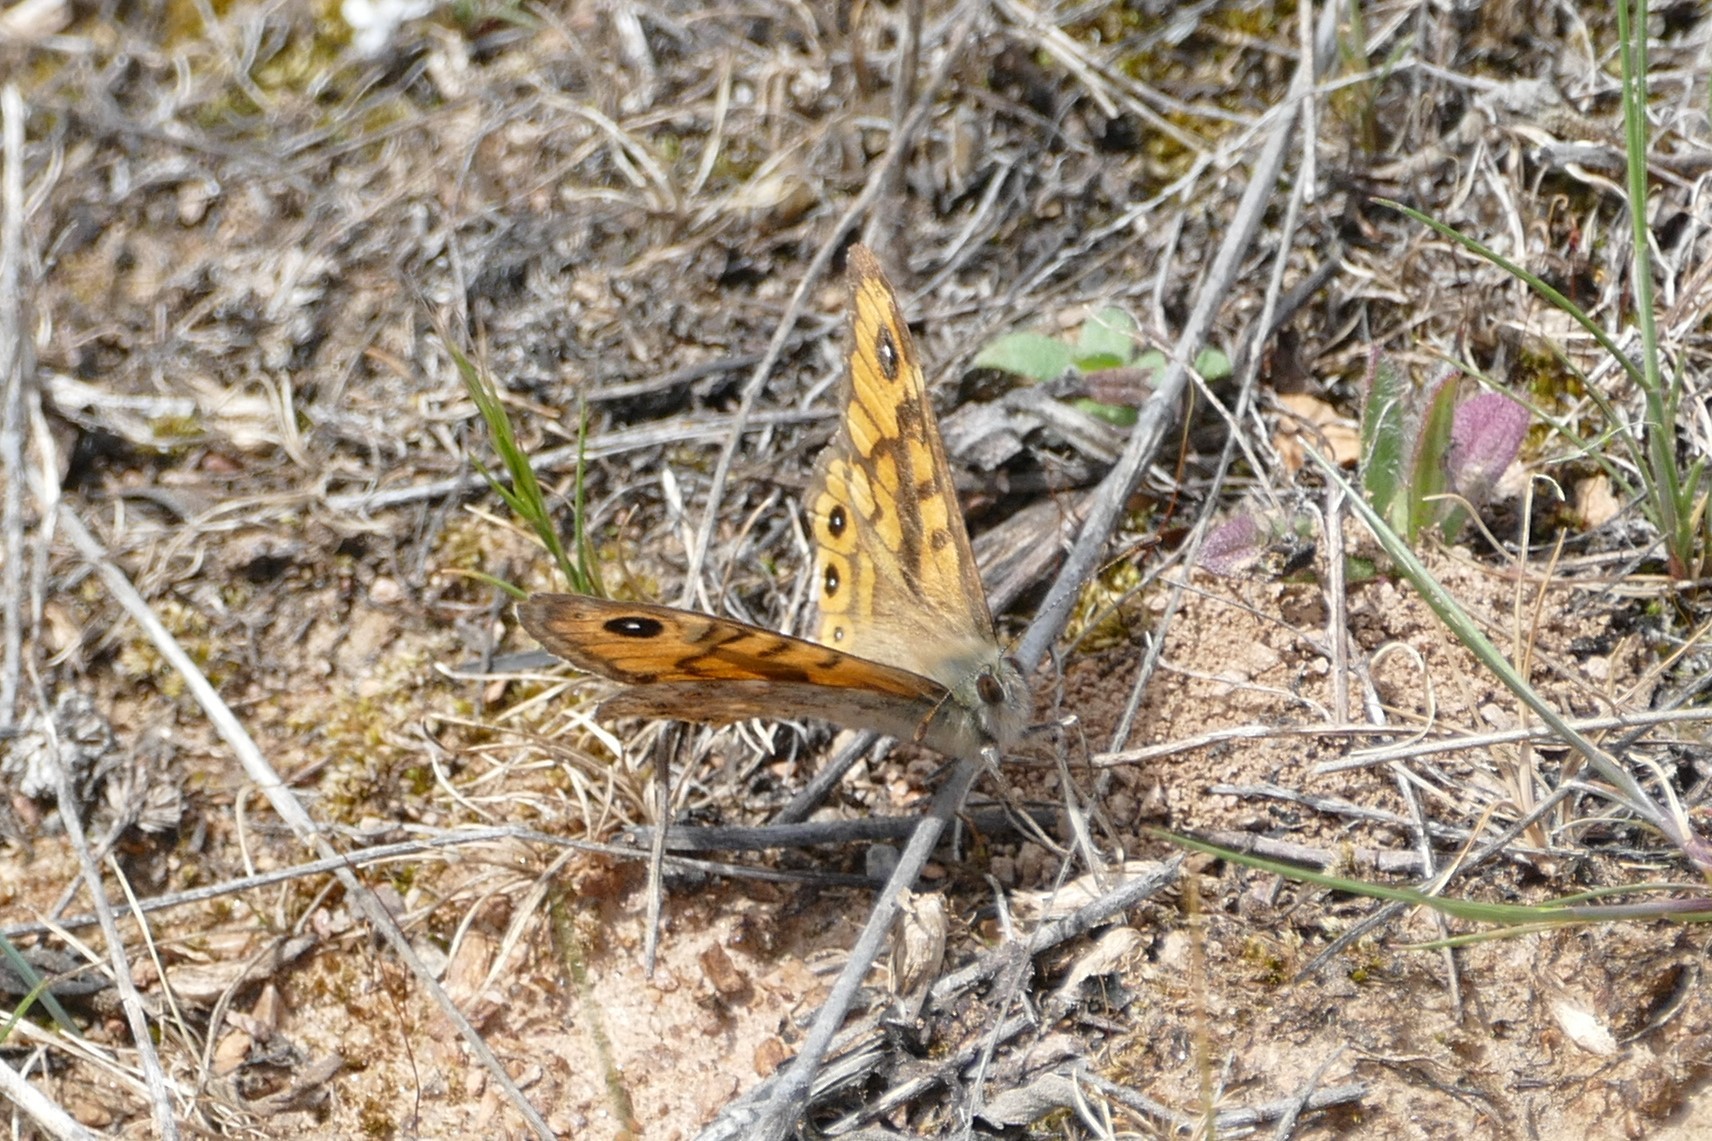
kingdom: Animalia
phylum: Arthropoda
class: Insecta
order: Lepidoptera
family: Nymphalidae
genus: Pararge
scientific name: Pararge Lasiommata megera
